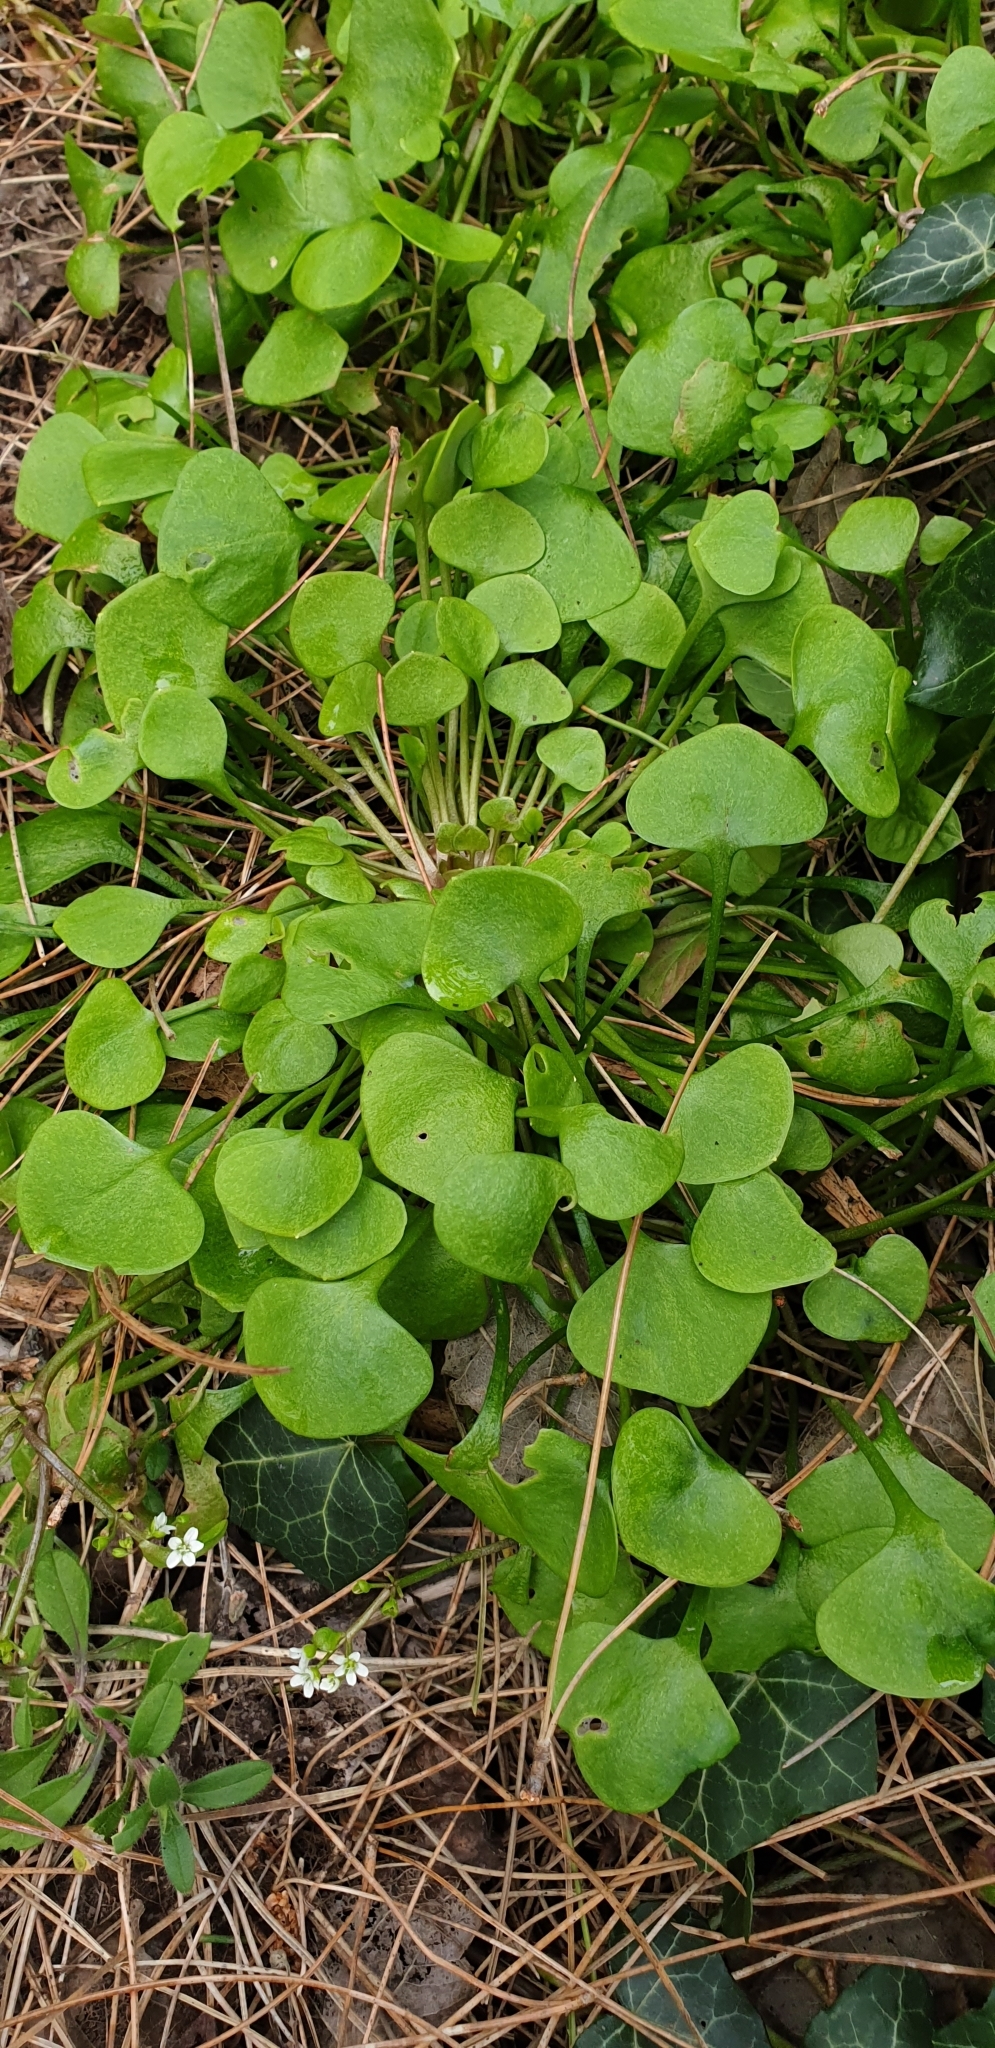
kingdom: Plantae
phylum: Tracheophyta
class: Magnoliopsida
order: Caryophyllales
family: Montiaceae
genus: Claytonia
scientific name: Claytonia perfoliata
